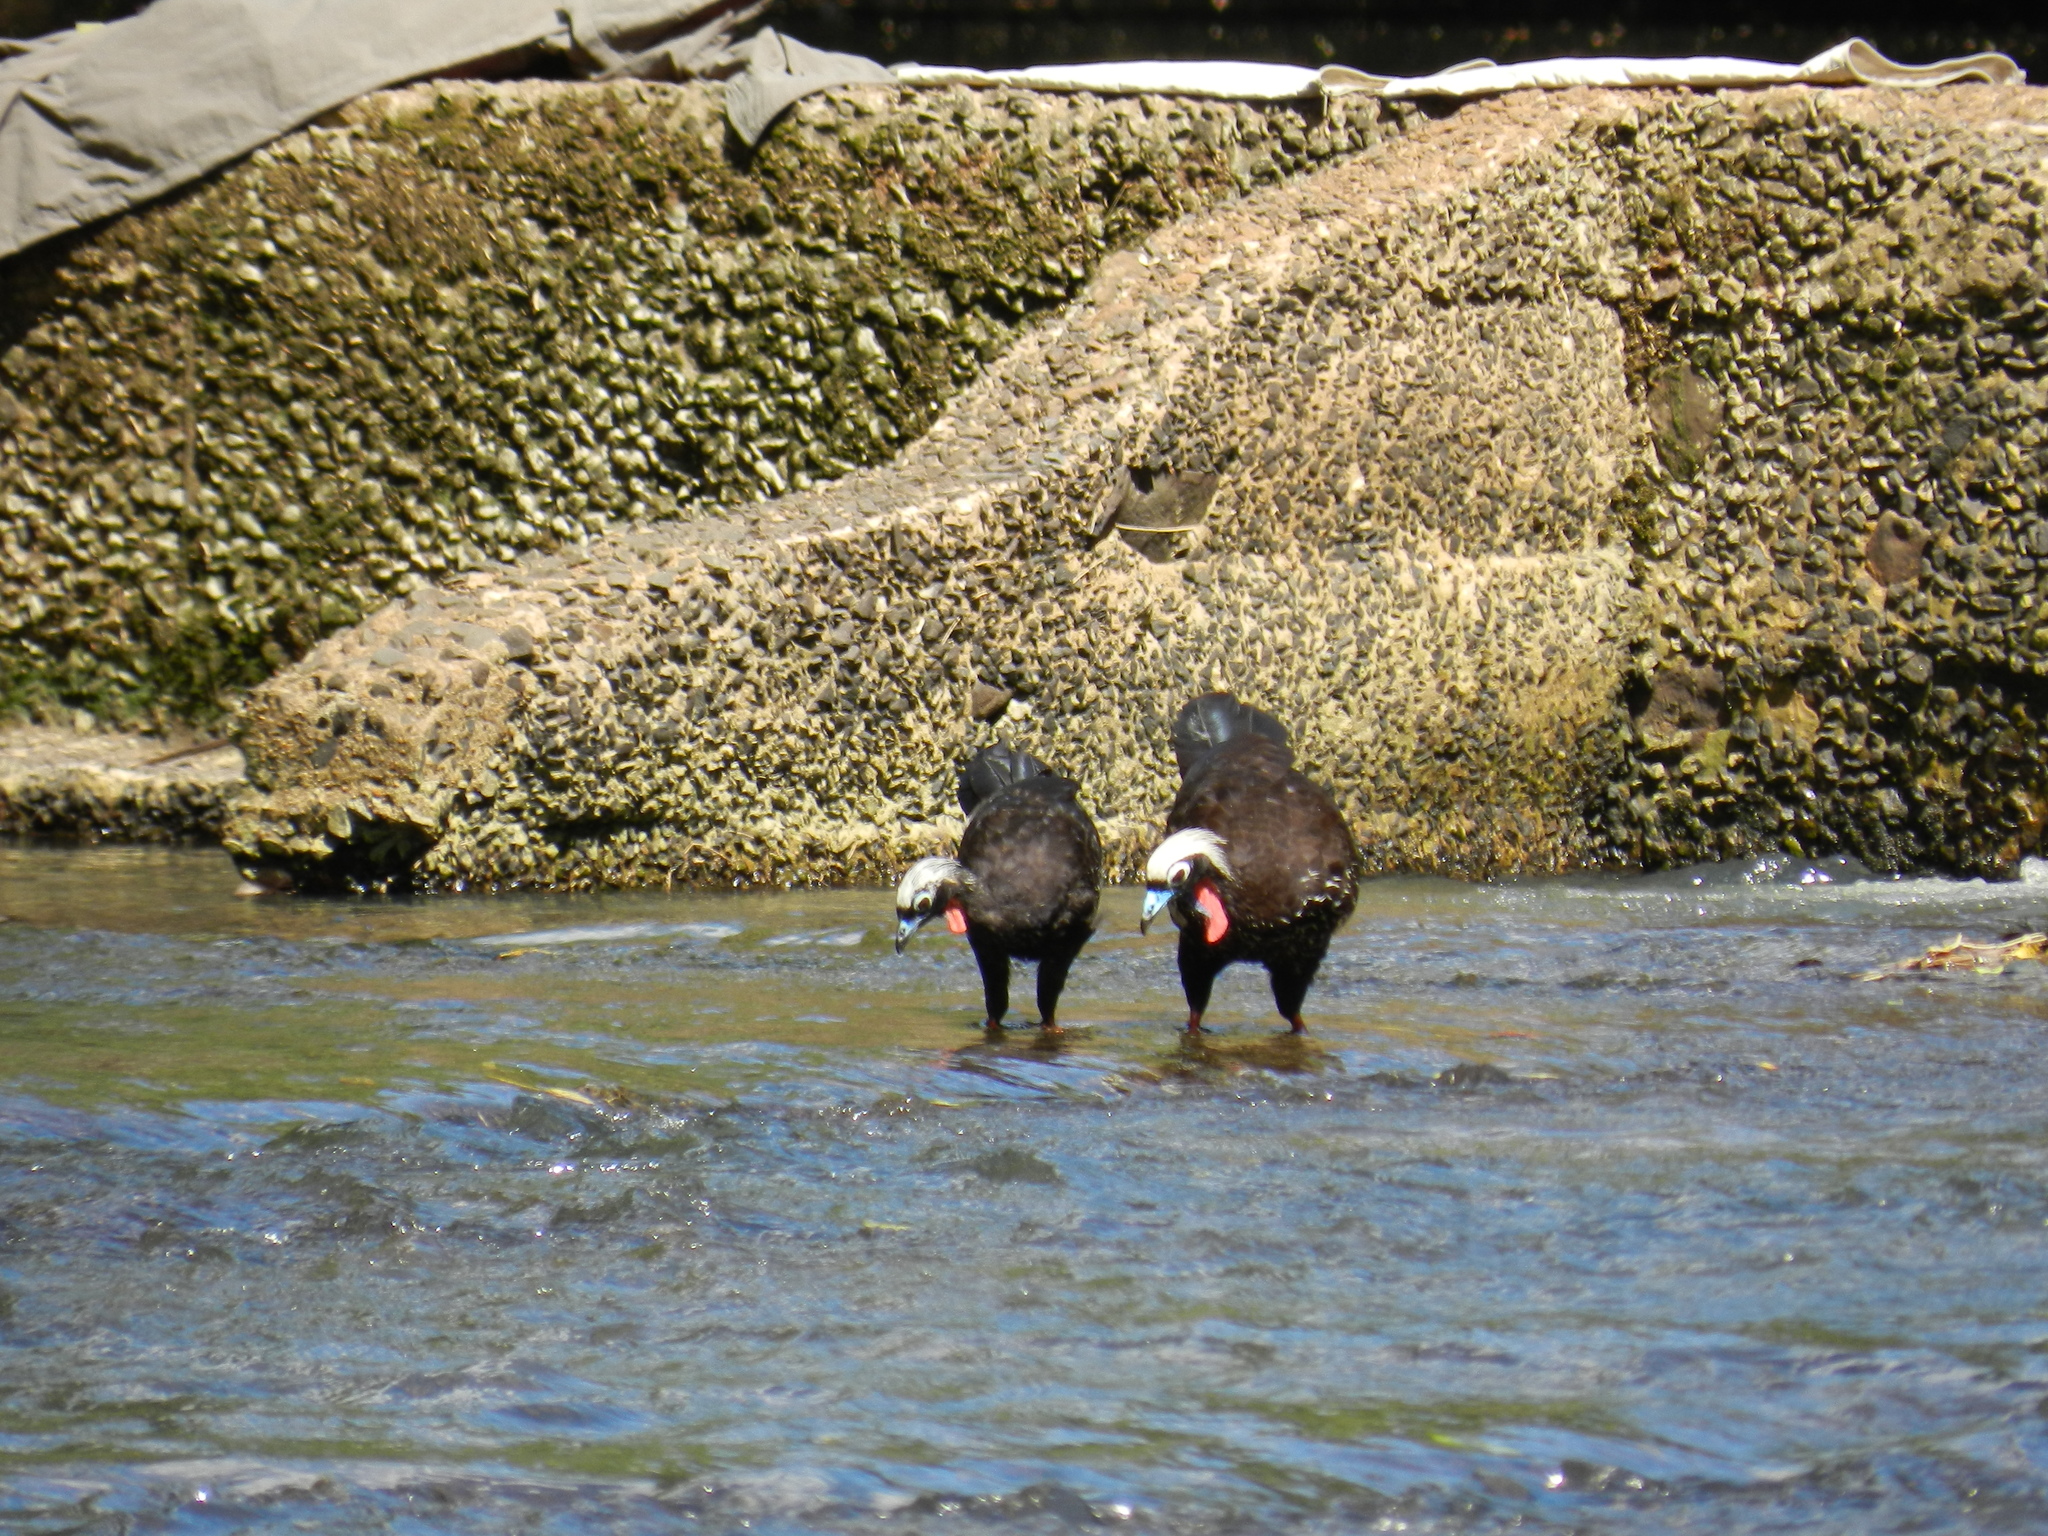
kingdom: Animalia
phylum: Chordata
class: Aves
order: Galliformes
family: Cracidae
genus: Pipile
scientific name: Pipile jacutinga
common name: Black-fronted piping-guan
